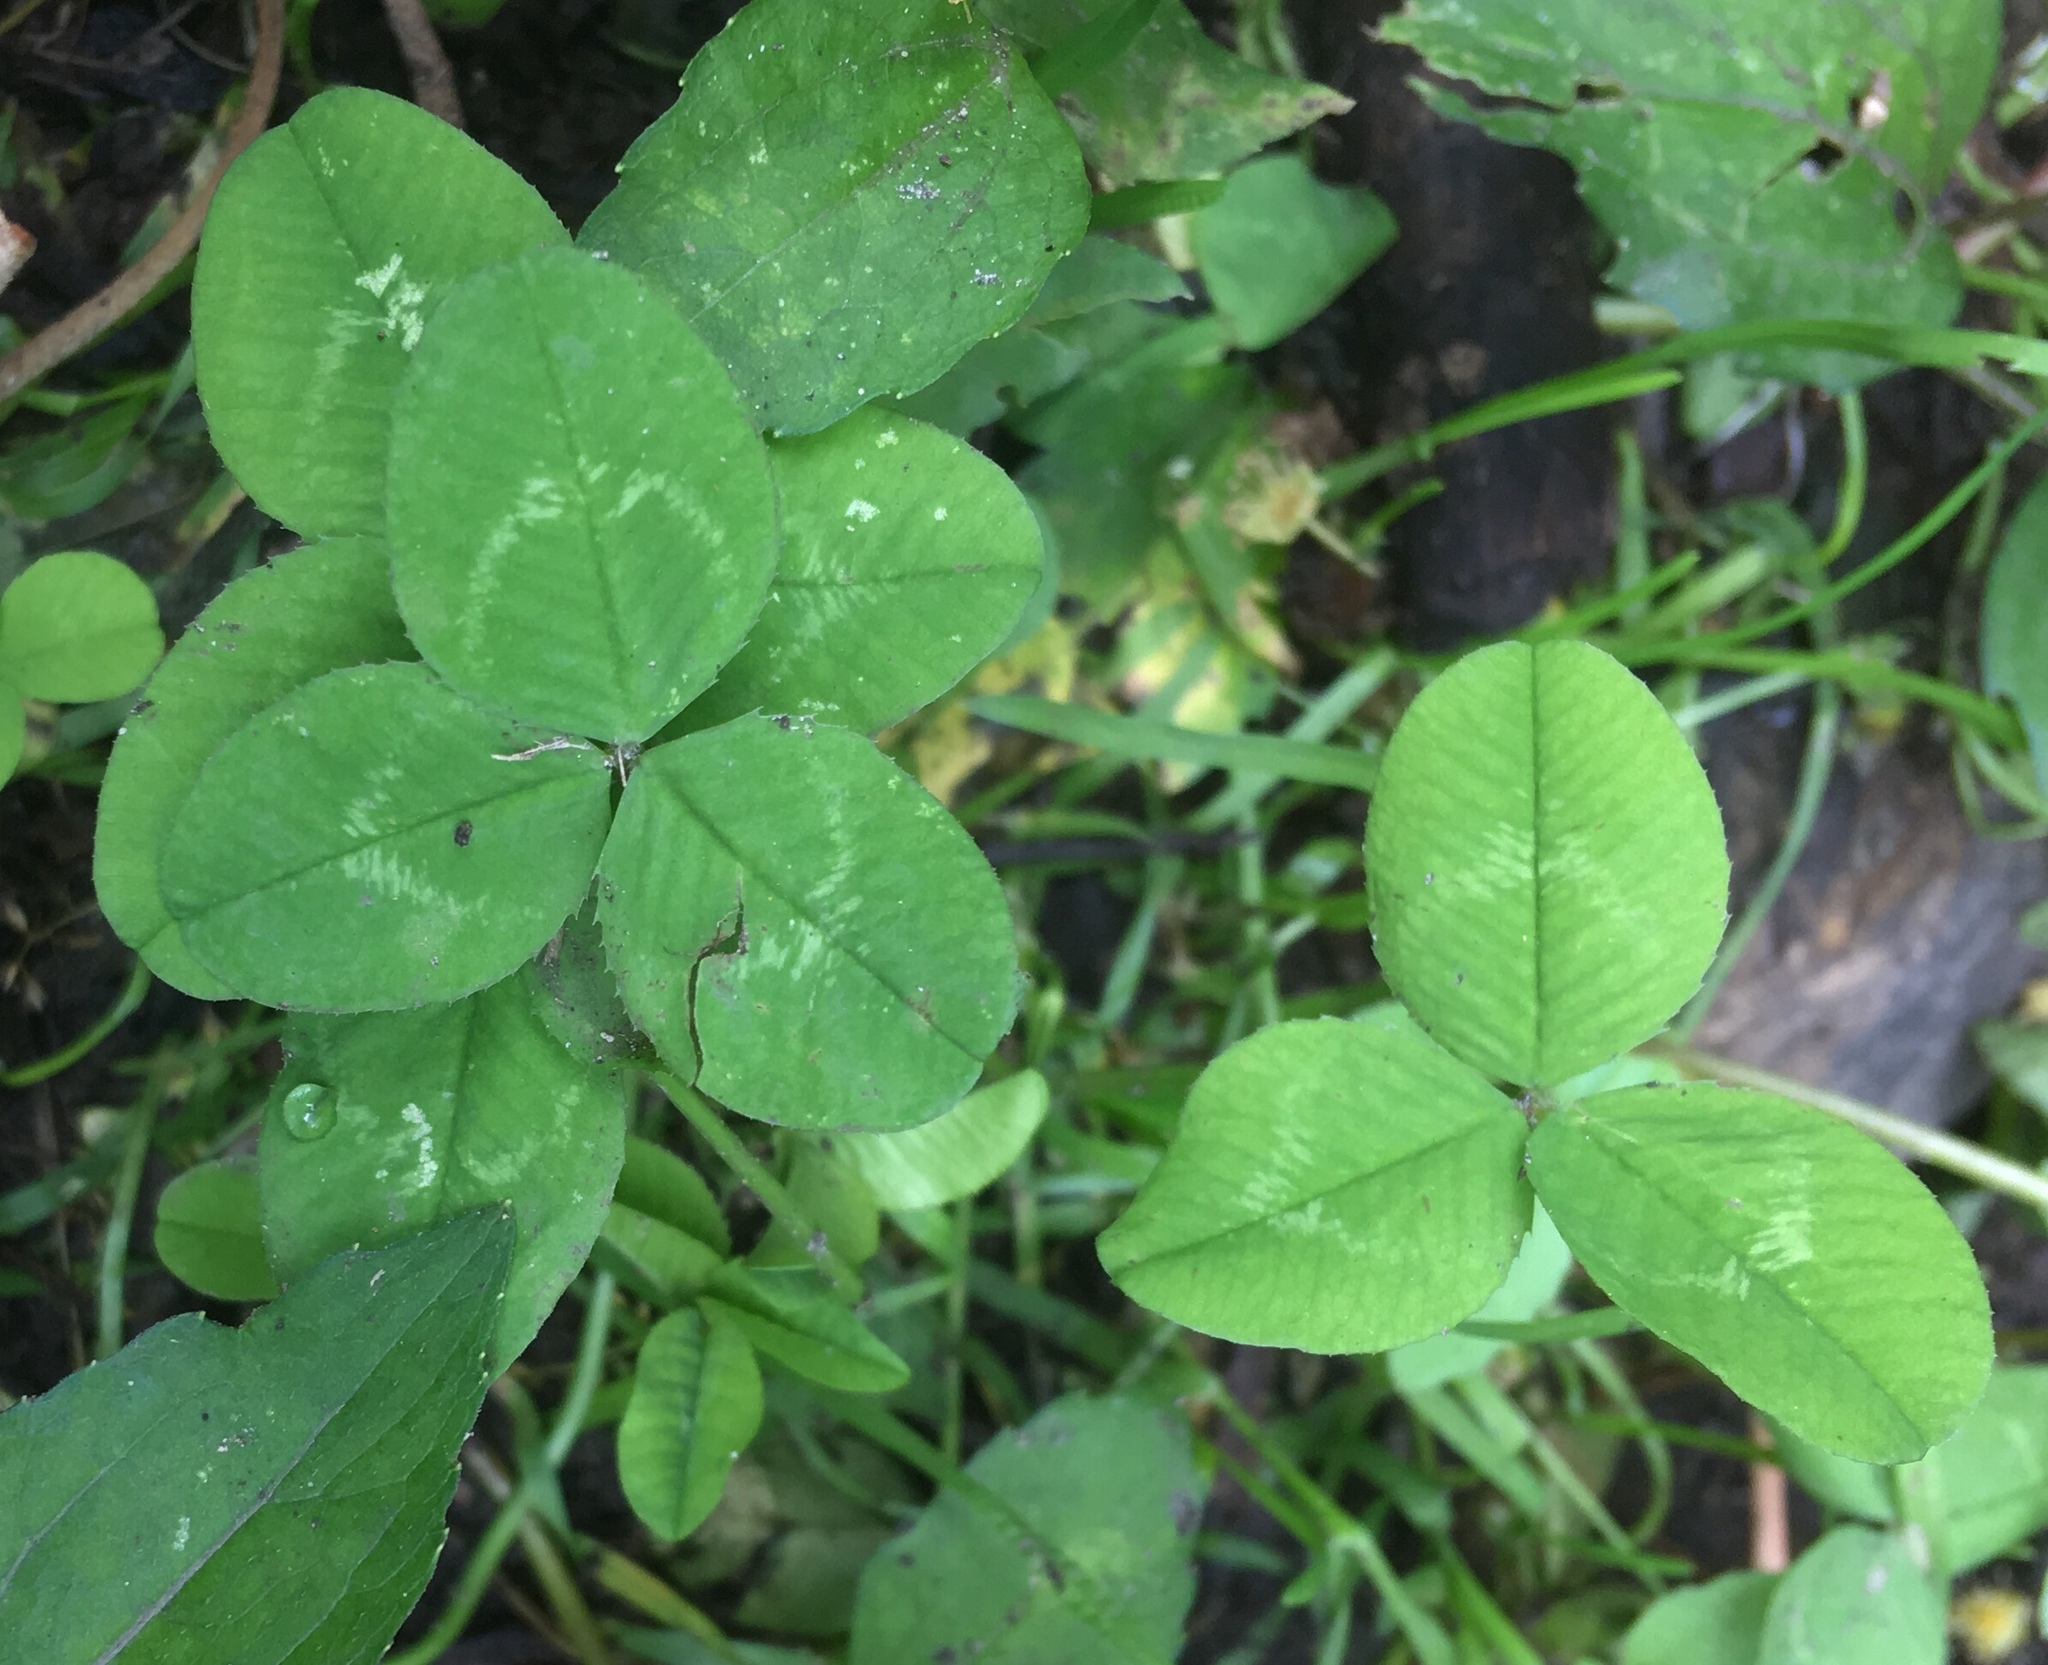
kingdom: Plantae
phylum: Tracheophyta
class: Magnoliopsida
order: Fabales
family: Fabaceae
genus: Trifolium
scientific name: Trifolium repens
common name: White clover
